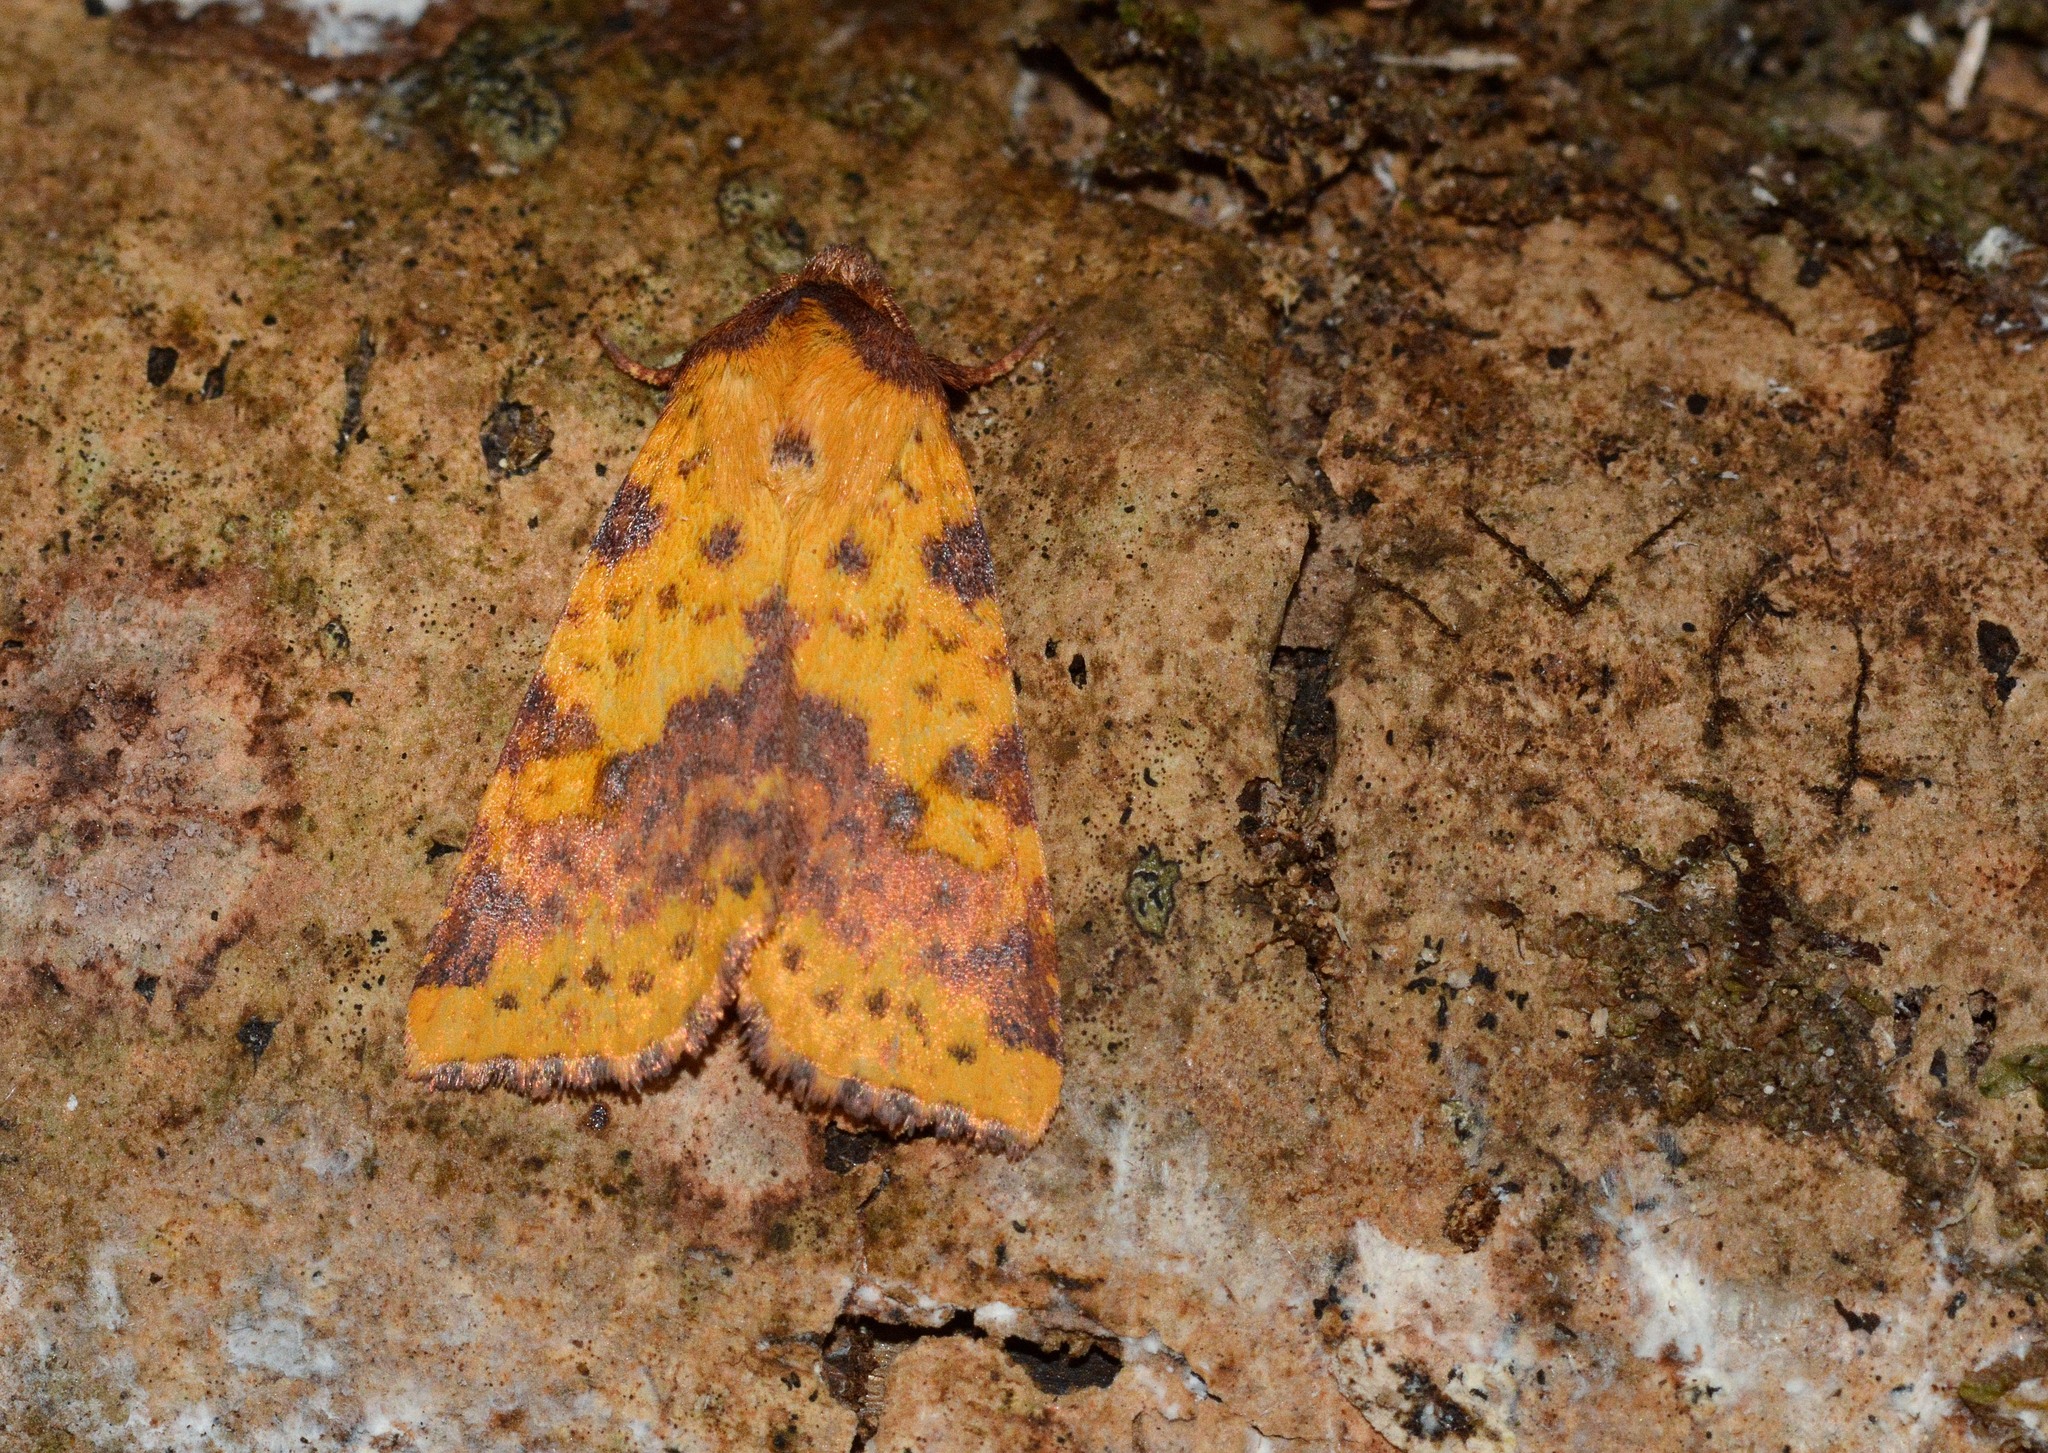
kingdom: Animalia
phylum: Arthropoda
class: Insecta
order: Lepidoptera
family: Noctuidae
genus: Xanthia
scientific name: Xanthia togata
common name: Pink-barred sallow
